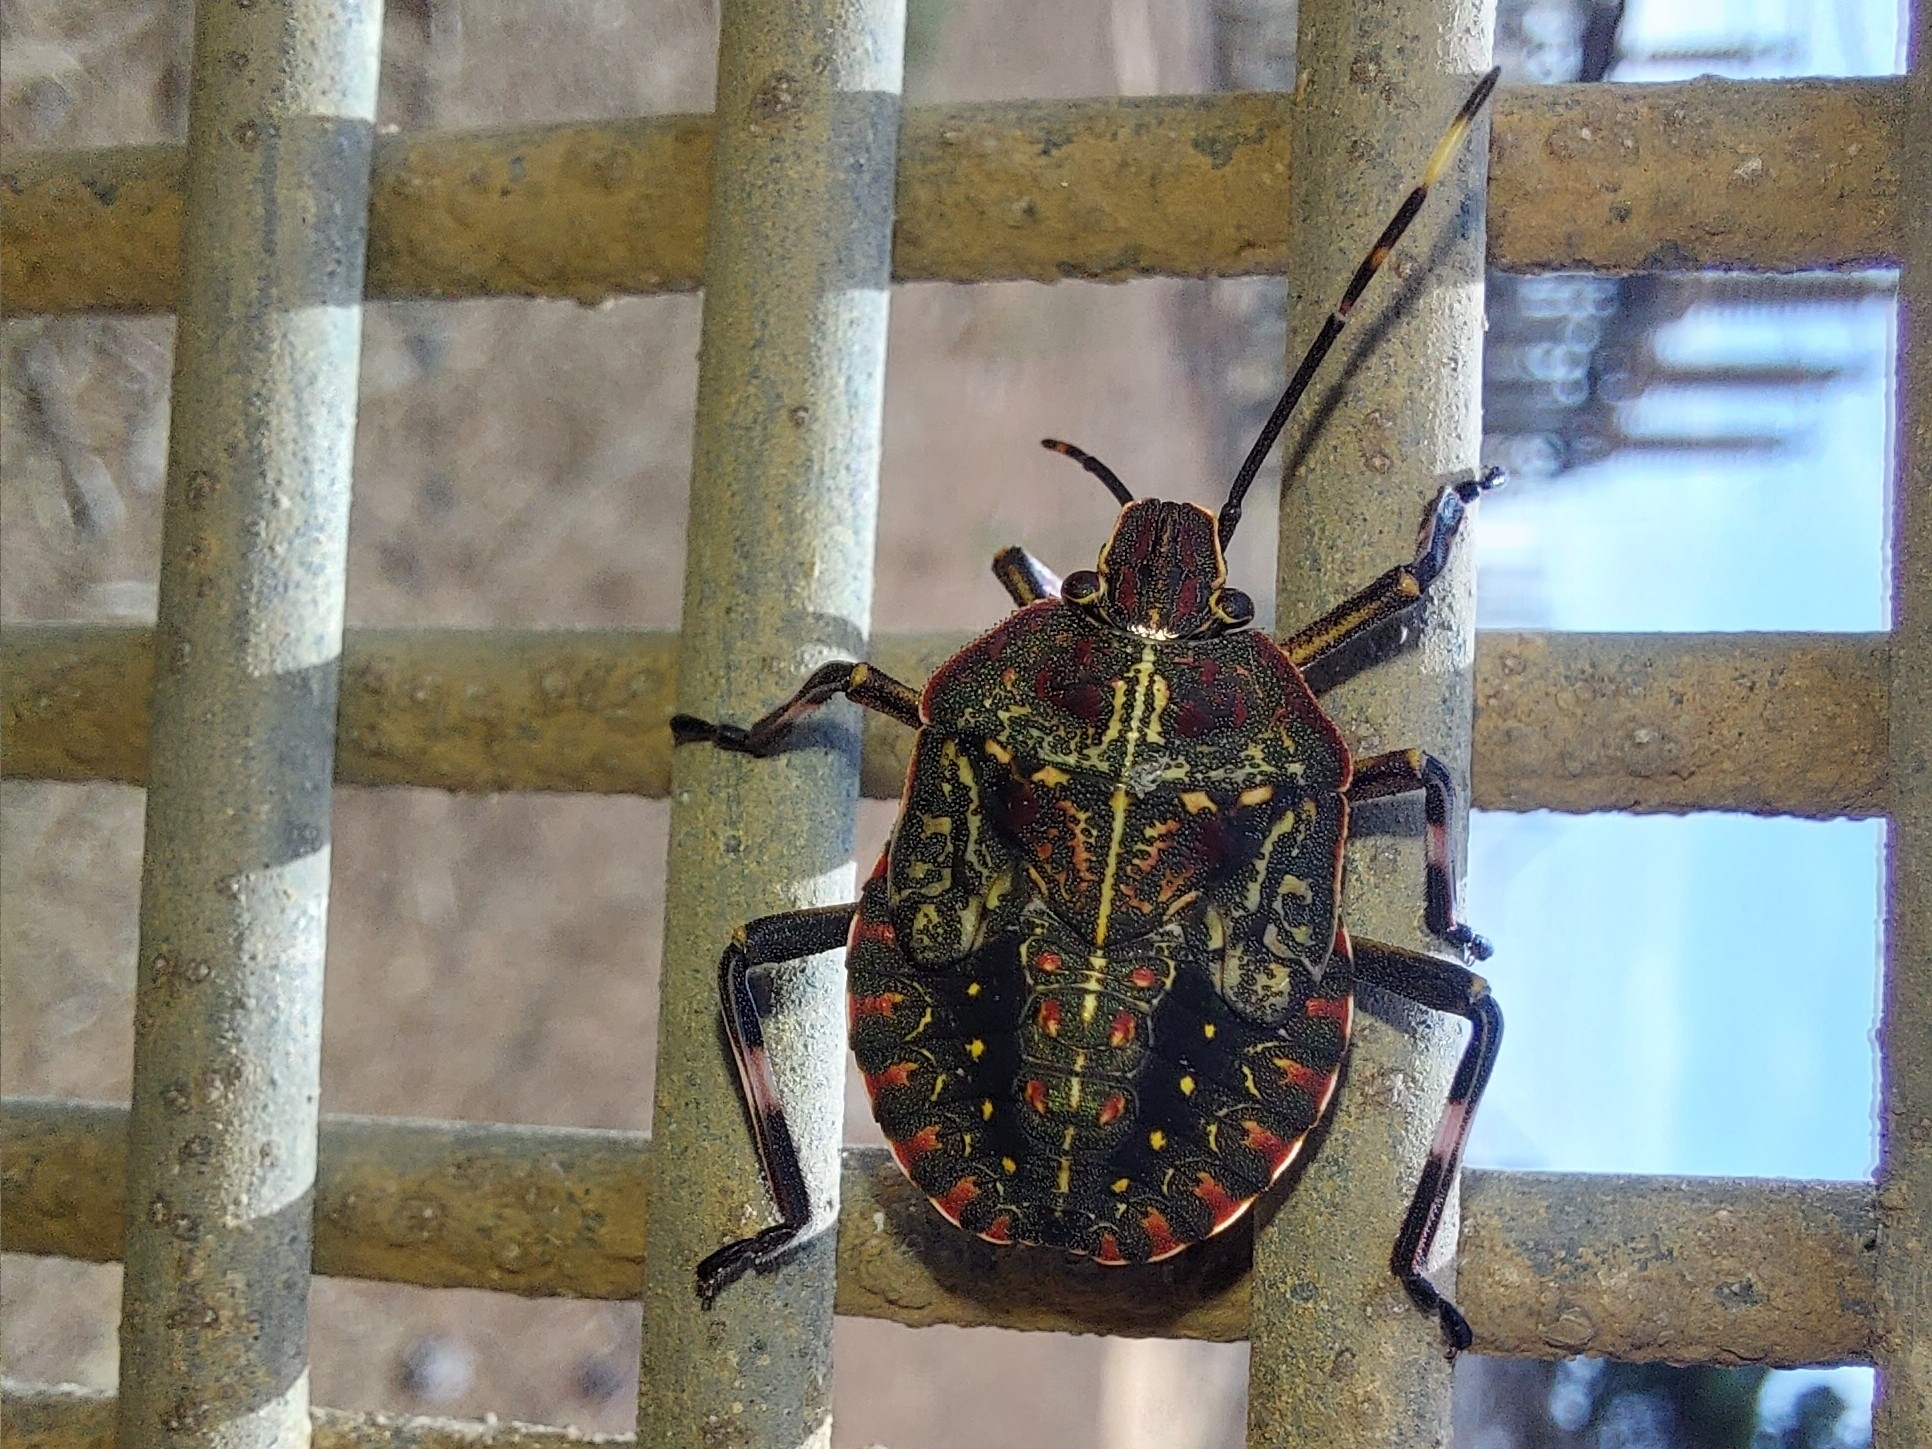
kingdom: Animalia
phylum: Arthropoda
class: Insecta
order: Hemiptera
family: Pentatomidae
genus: Coenomorpha
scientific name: Coenomorpha nervosa
